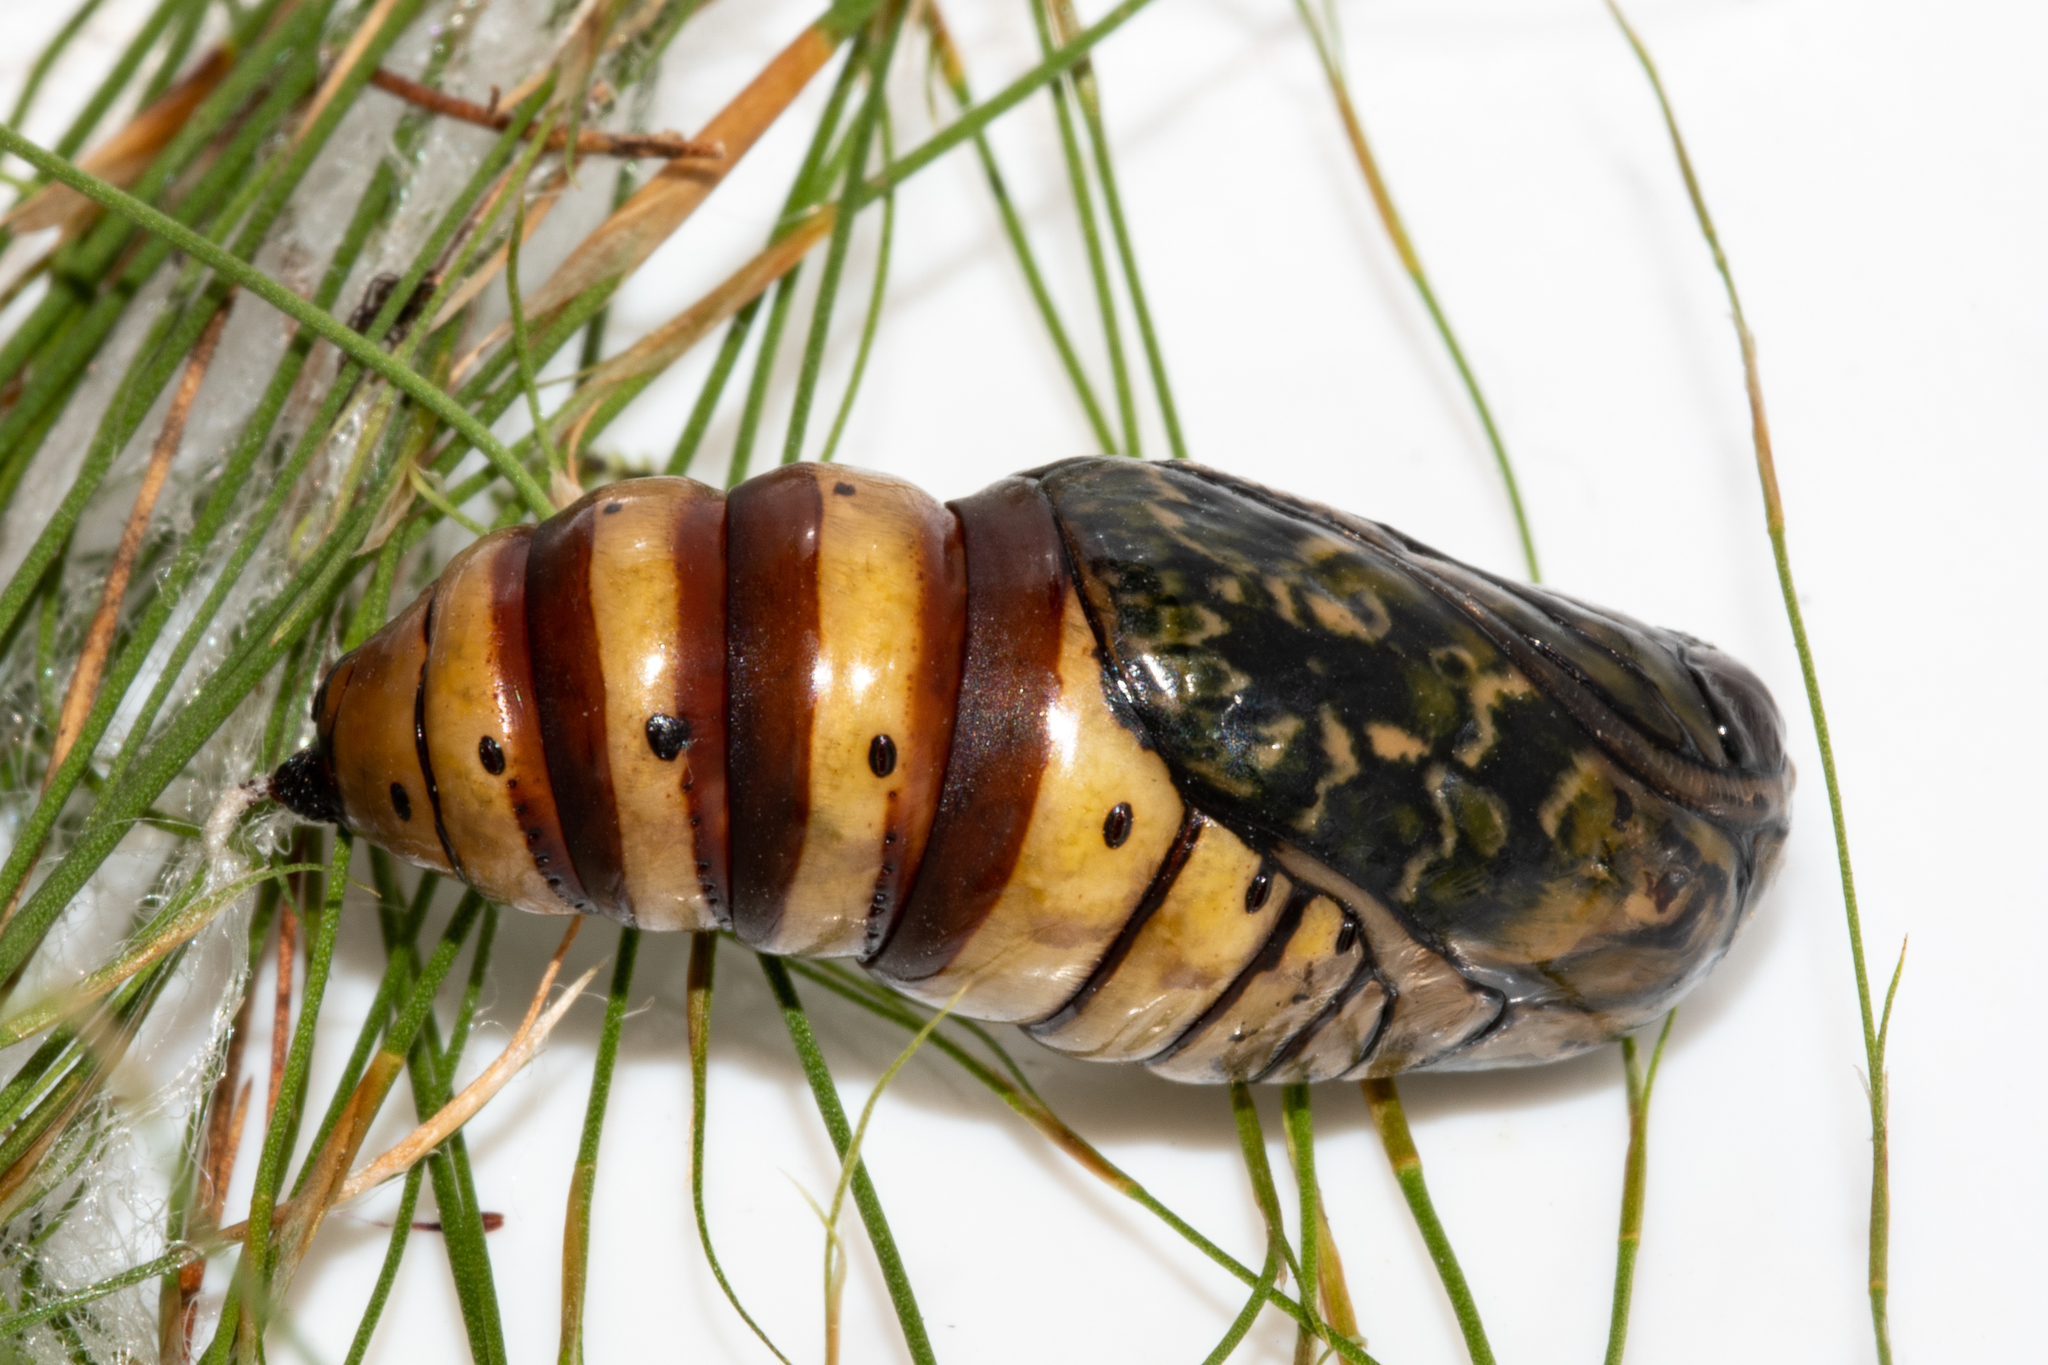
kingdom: Animalia
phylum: Arthropoda
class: Insecta
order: Lepidoptera
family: Noctuidae
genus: Nyodes
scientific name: Nyodes lutescens
